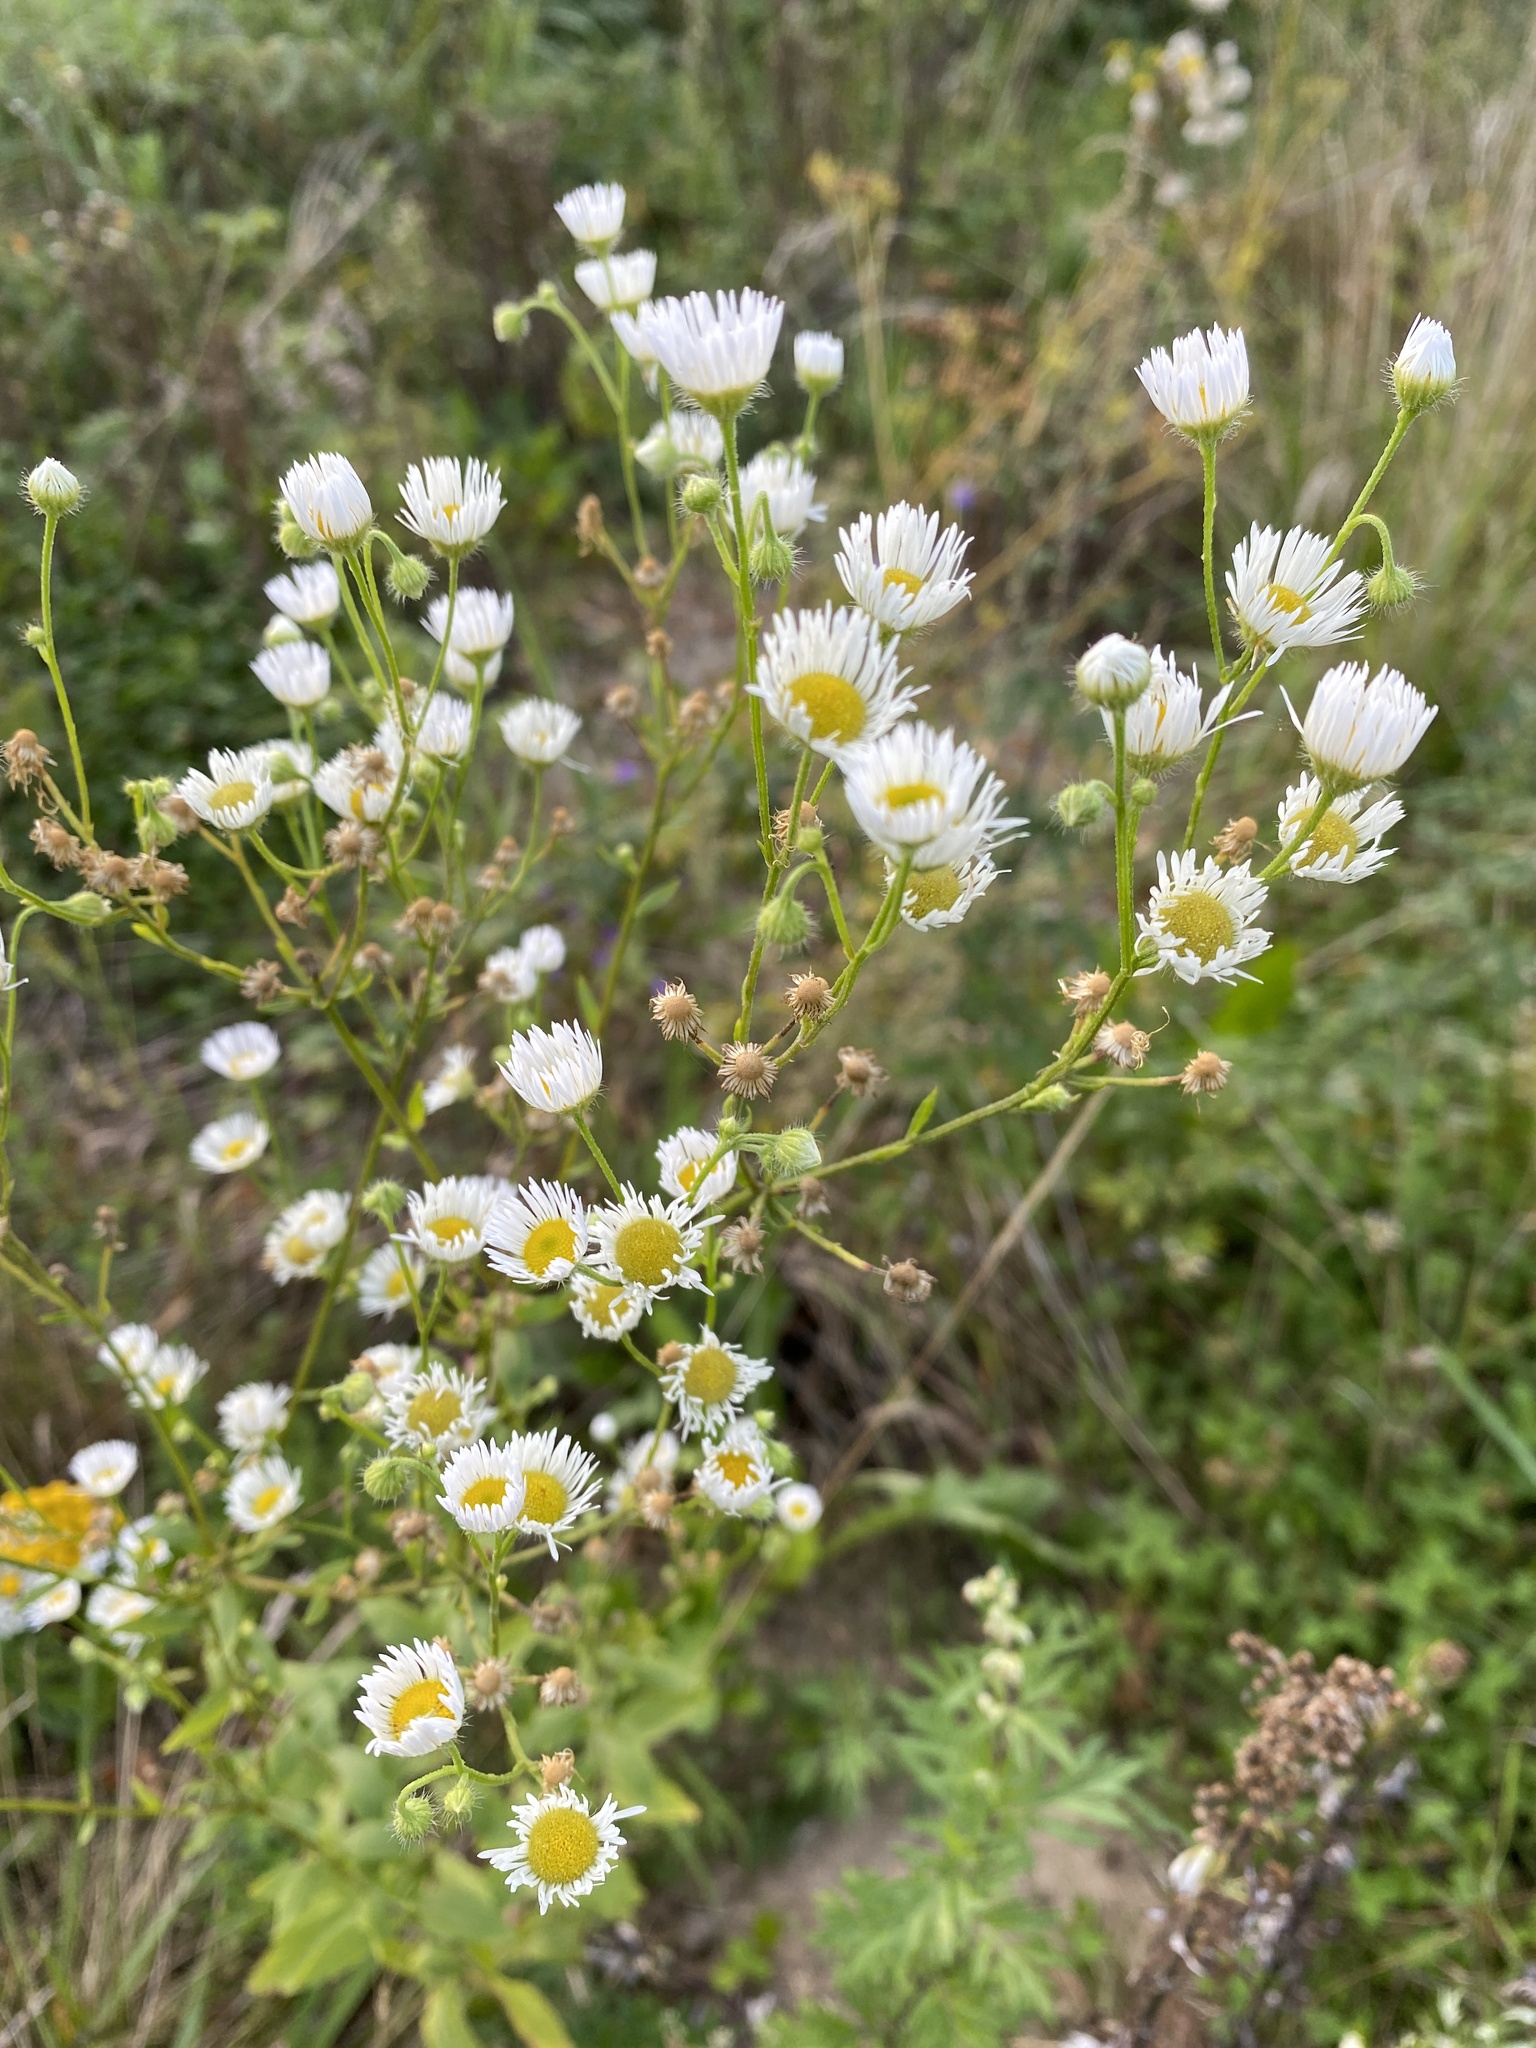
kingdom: Plantae
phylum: Tracheophyta
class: Magnoliopsida
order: Asterales
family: Asteraceae
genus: Erigeron
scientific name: Erigeron annuus
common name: Tall fleabane
